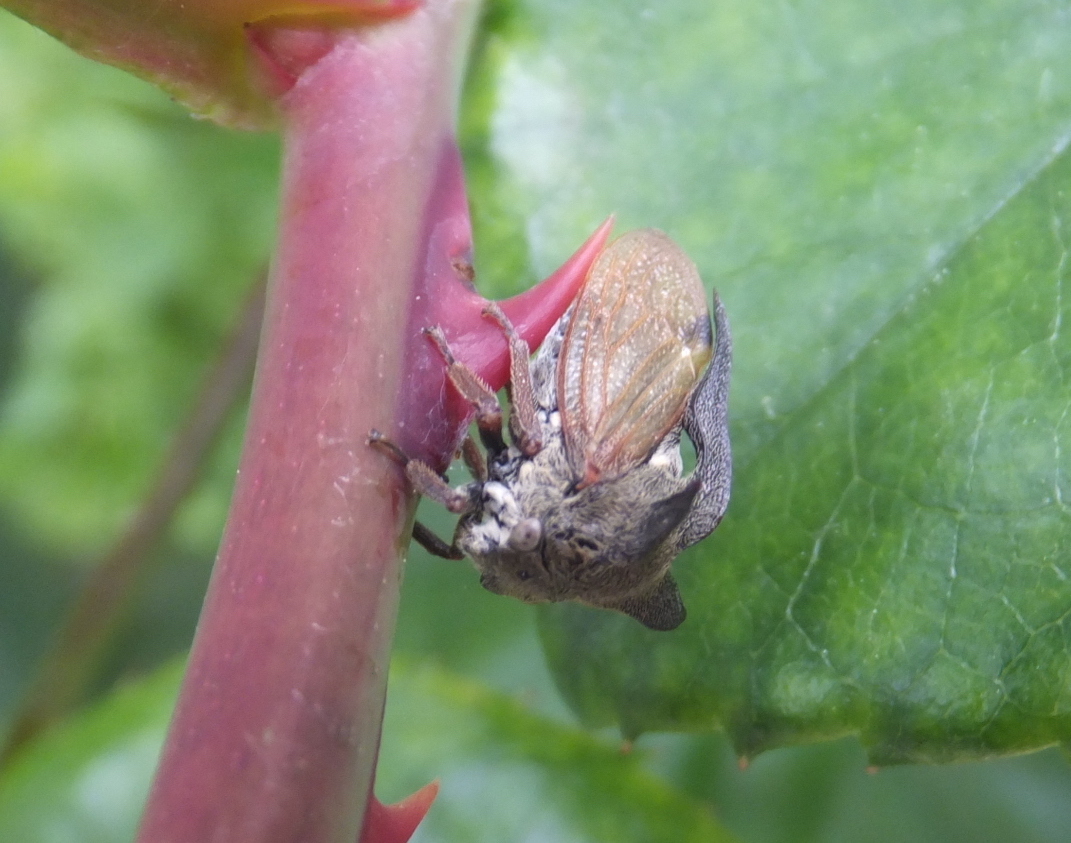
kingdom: Animalia
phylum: Arthropoda
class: Insecta
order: Hemiptera
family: Membracidae
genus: Centrotus
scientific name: Centrotus cornuta
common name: Treehopper
